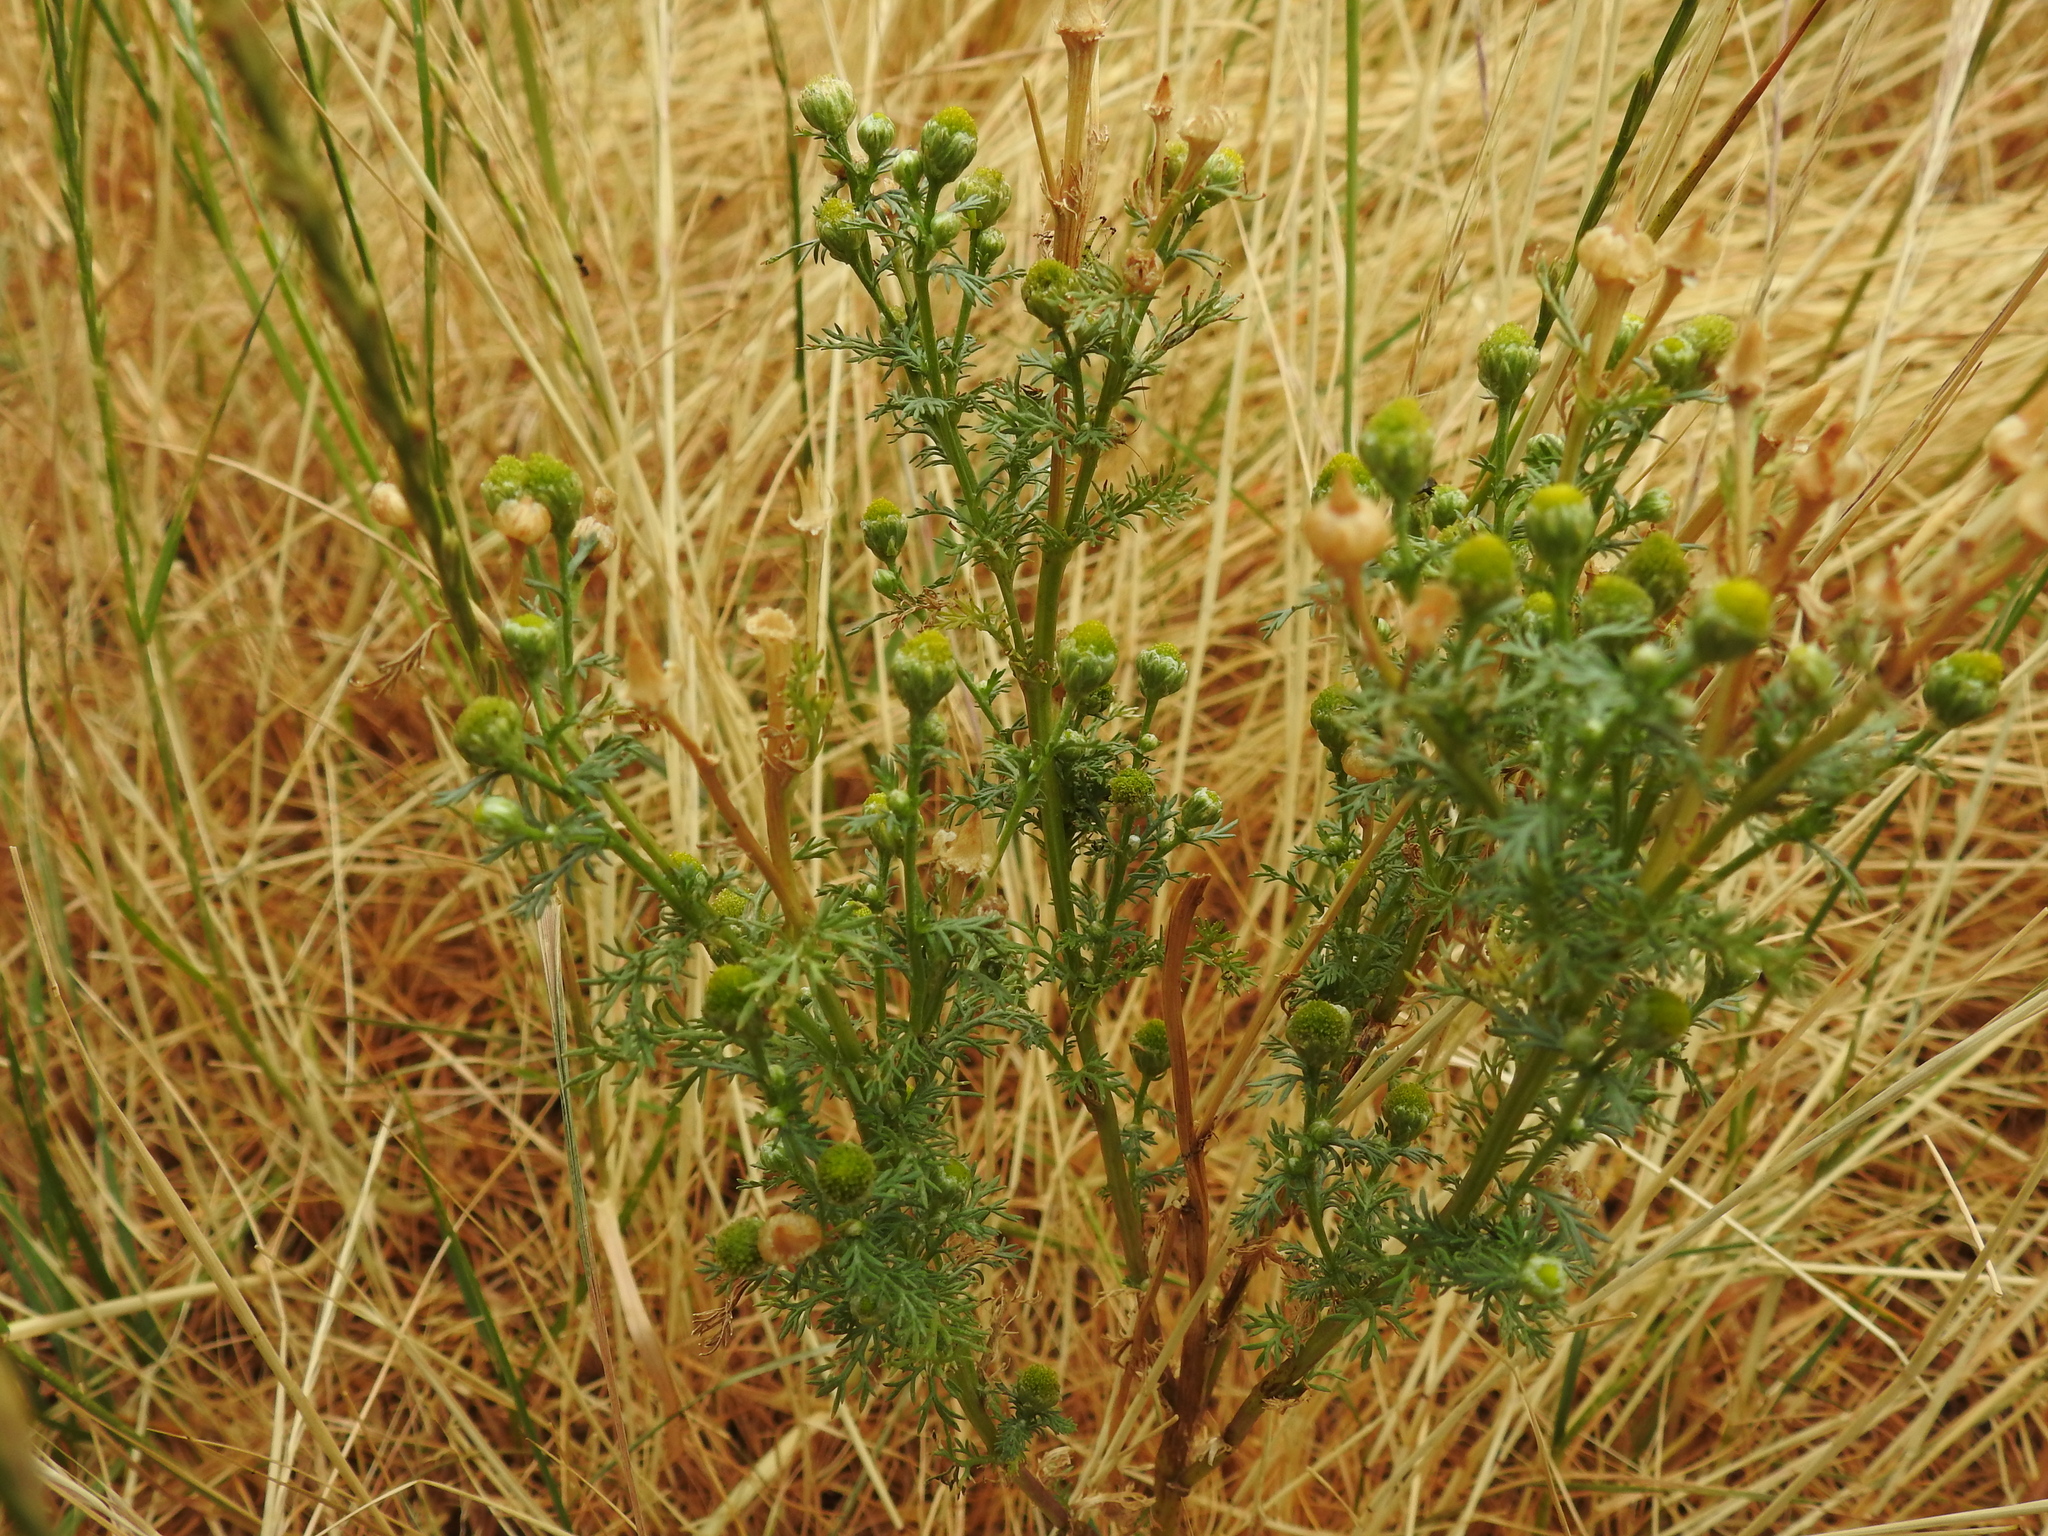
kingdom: Plantae
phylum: Tracheophyta
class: Magnoliopsida
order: Asterales
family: Asteraceae
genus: Matricaria
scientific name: Matricaria discoidea
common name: Disc mayweed
